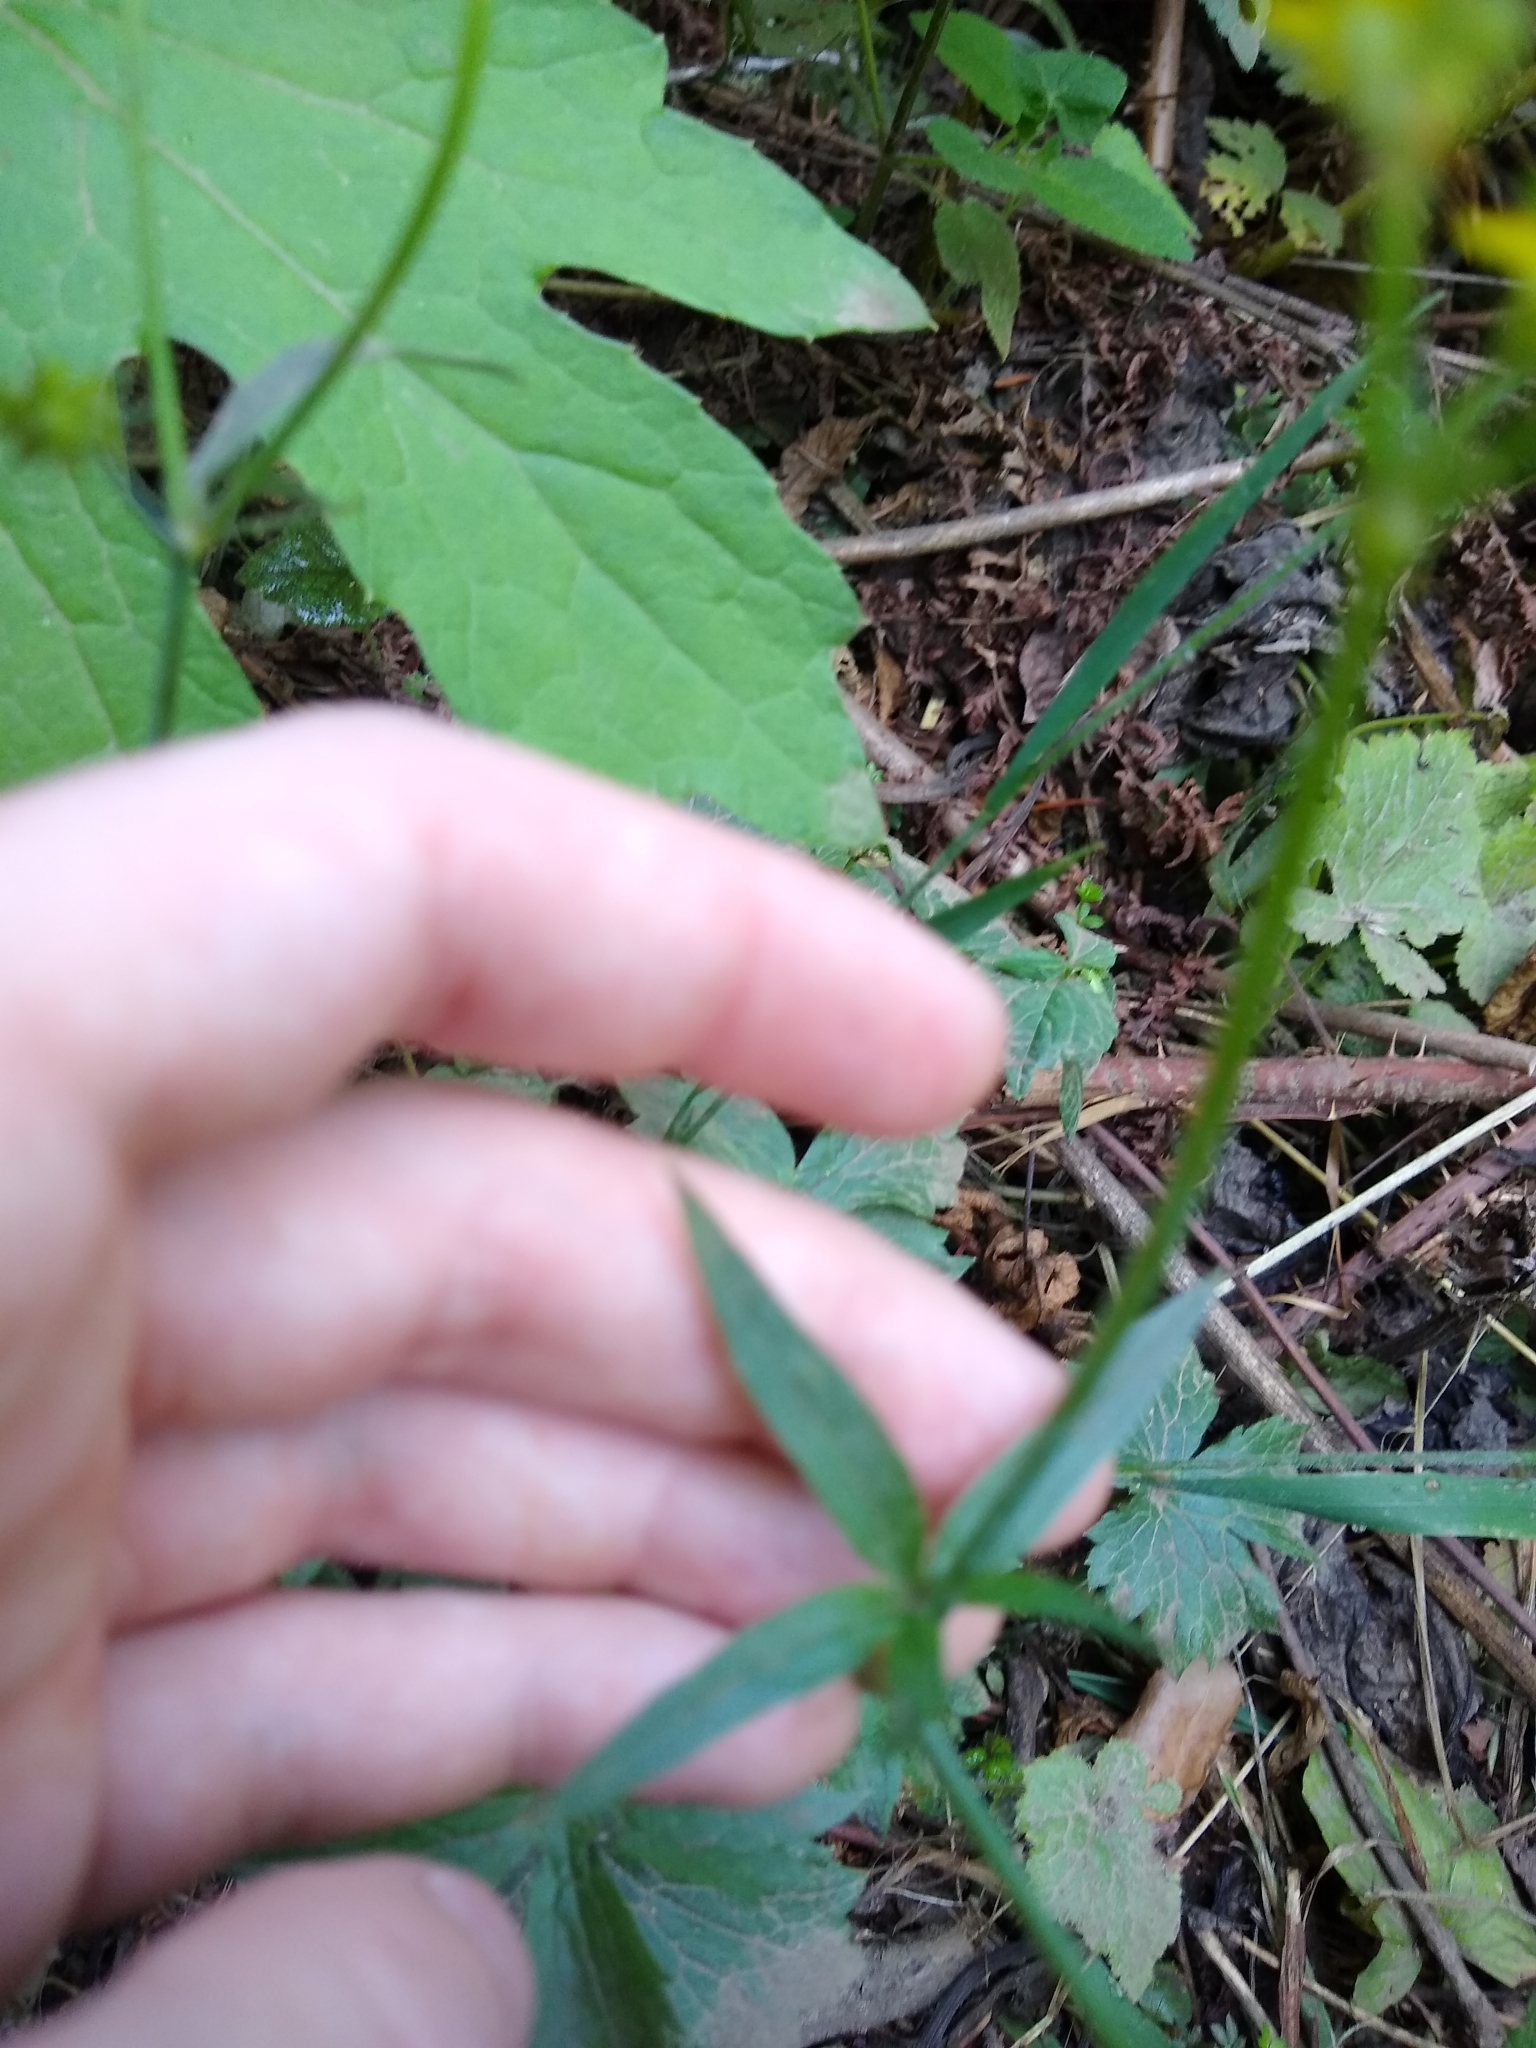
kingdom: Plantae
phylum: Tracheophyta
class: Magnoliopsida
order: Ranunculales
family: Ranunculaceae
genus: Ranunculus
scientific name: Ranunculus uncinatus
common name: Little buttercup
